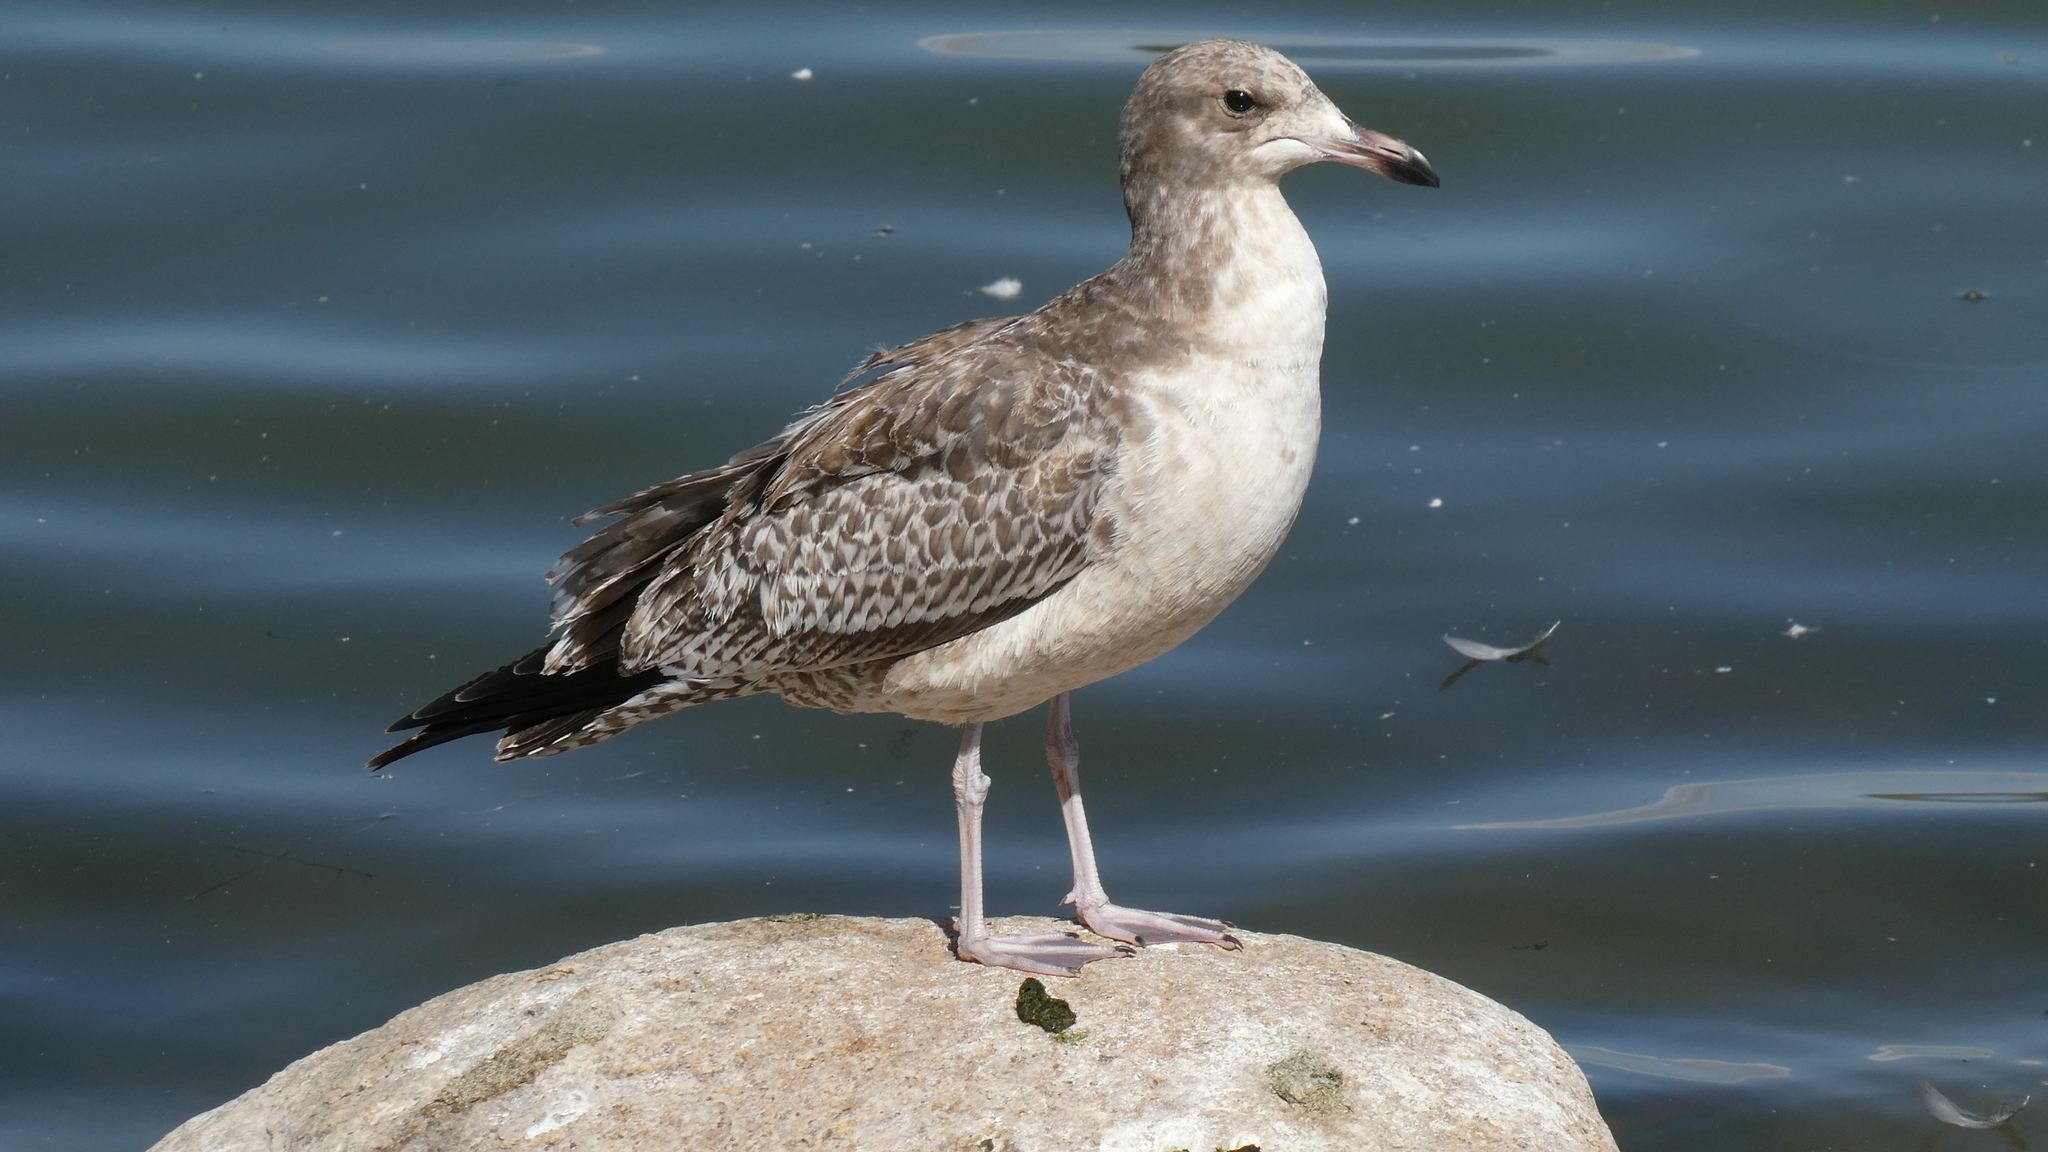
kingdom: Animalia
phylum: Chordata
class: Aves
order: Charadriiformes
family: Laridae
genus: Larus
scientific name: Larus californicus
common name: California gull
